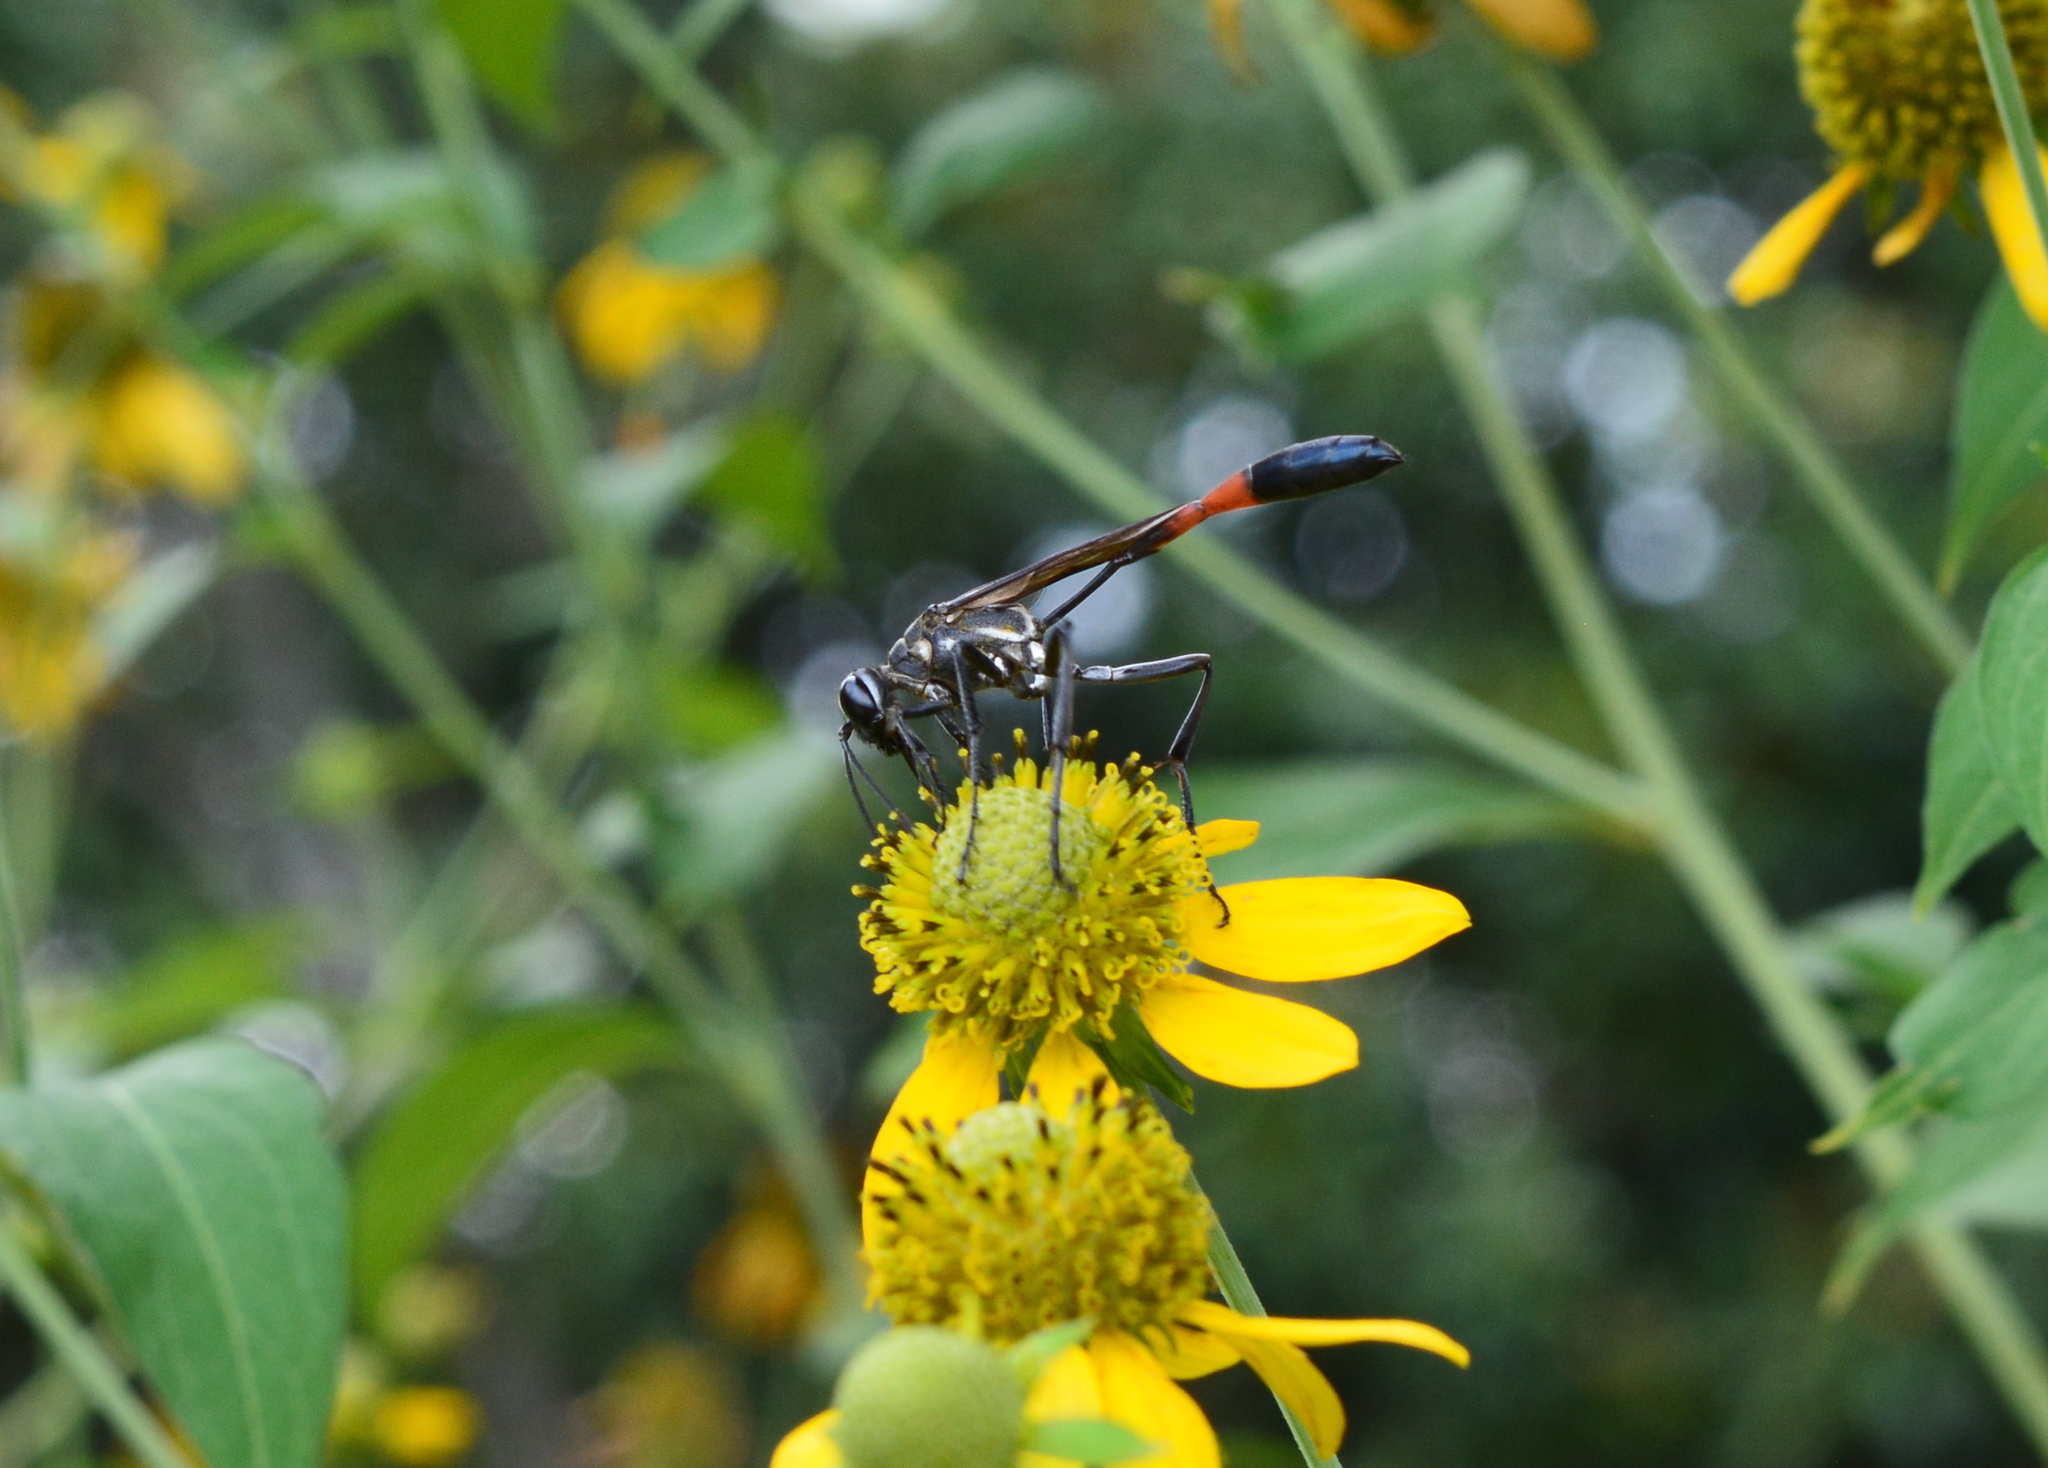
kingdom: Animalia
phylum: Arthropoda
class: Insecta
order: Hymenoptera
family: Sphecidae
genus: Ammophila
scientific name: Ammophila procera
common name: Common thread-waisted wasp
